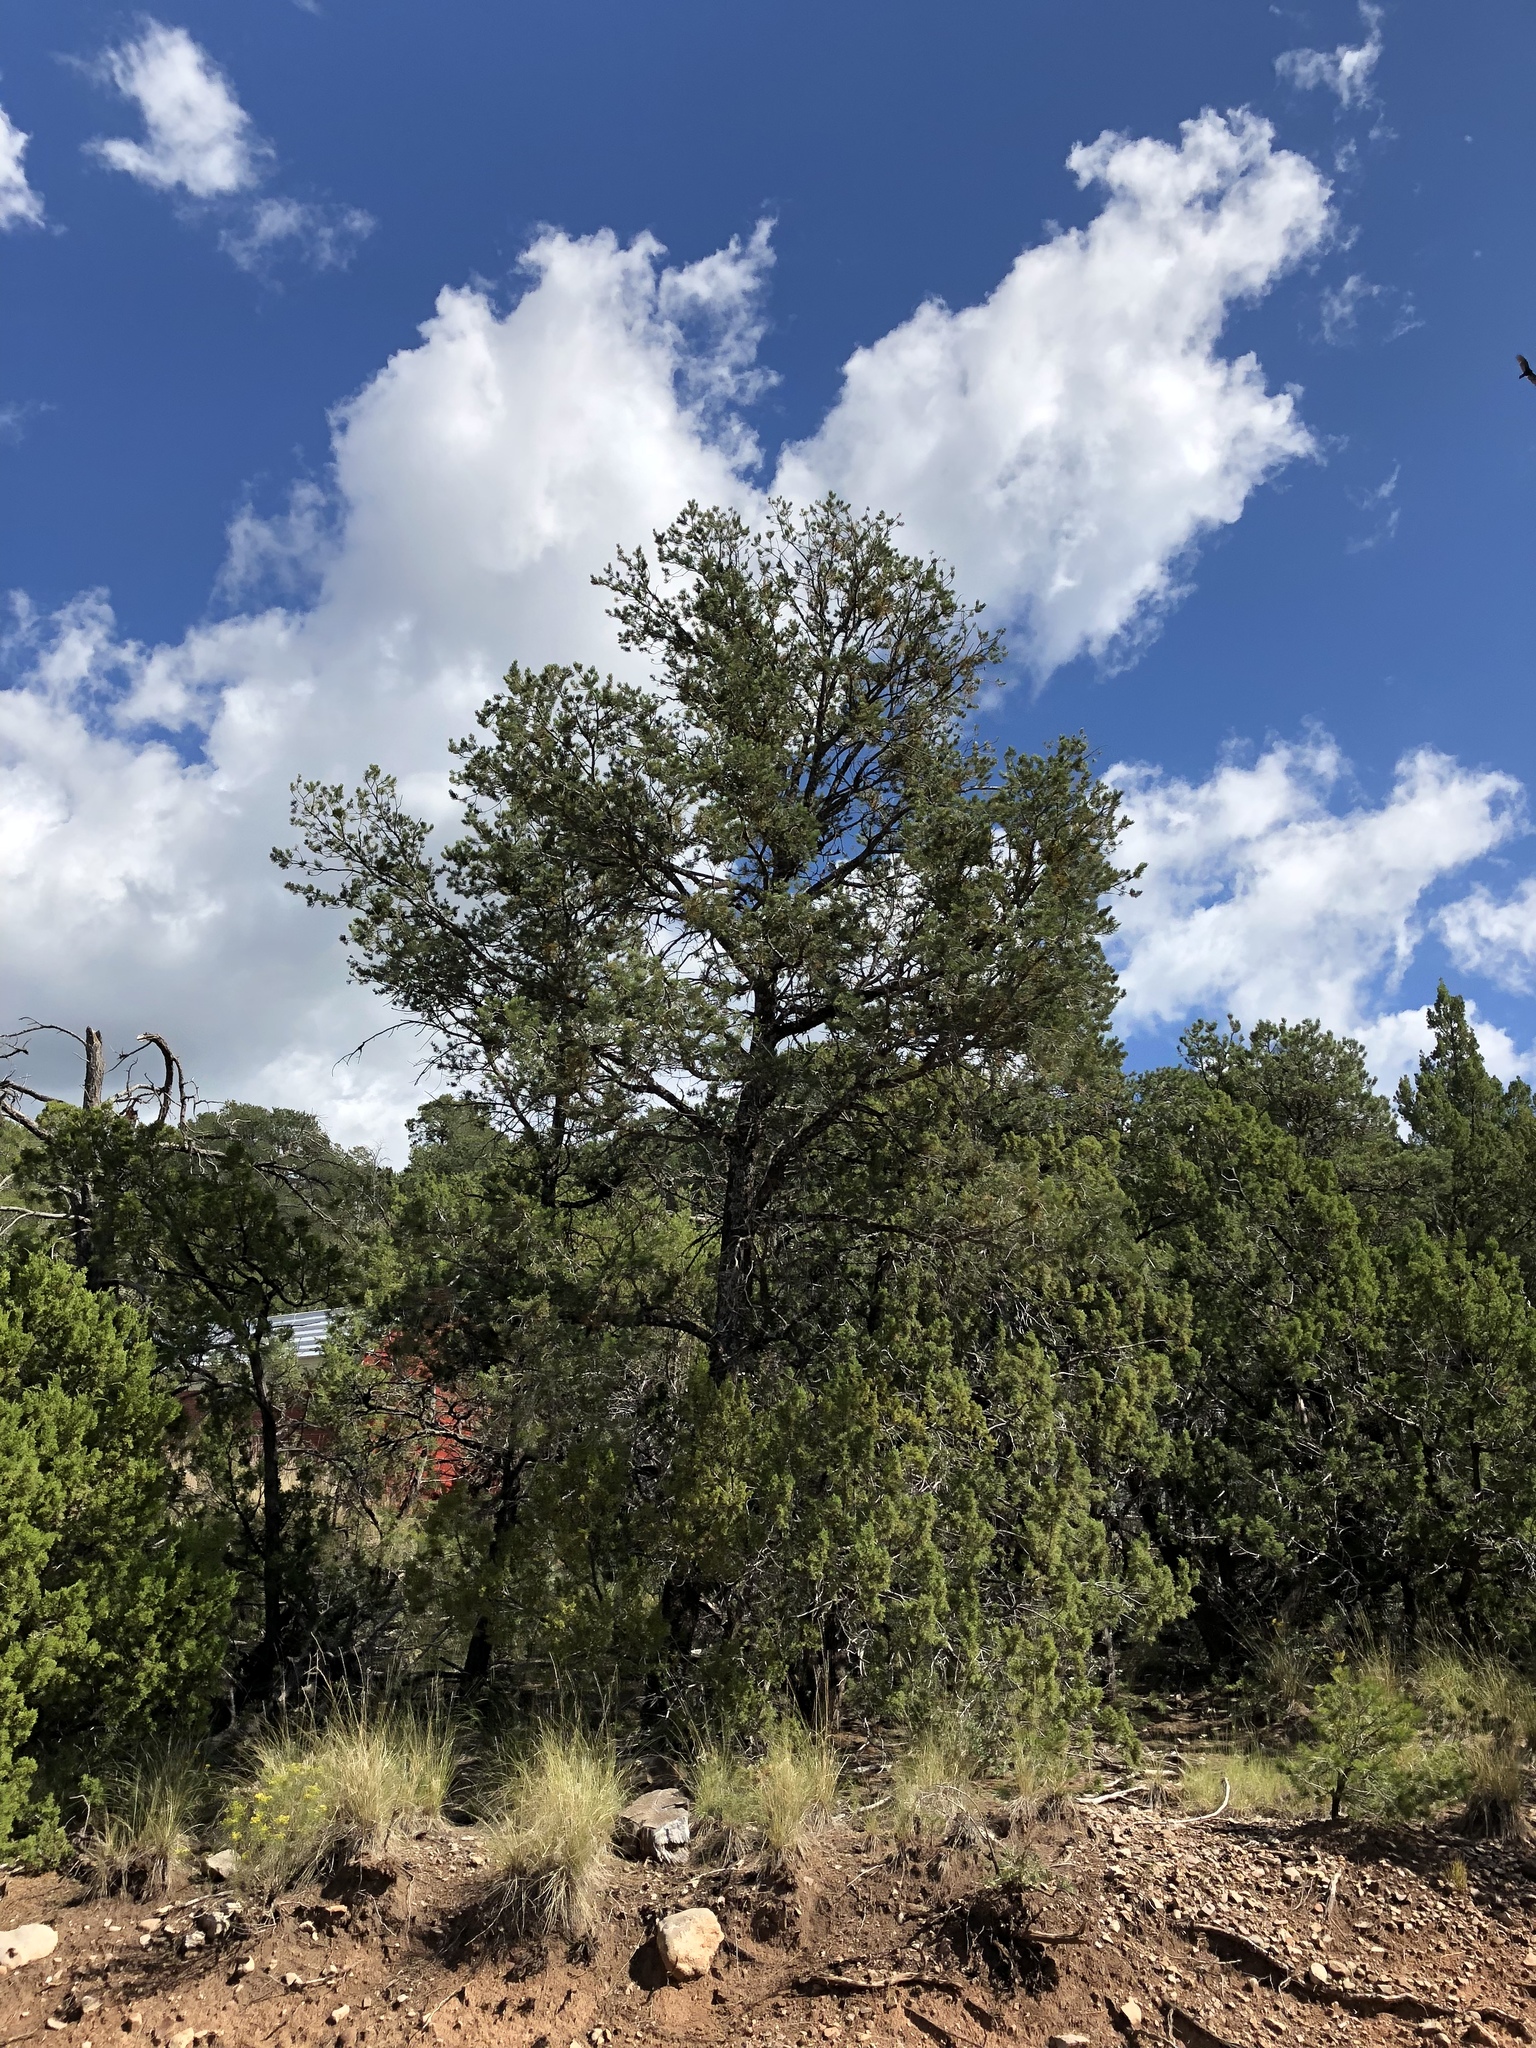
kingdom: Plantae
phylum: Tracheophyta
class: Pinopsida
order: Pinales
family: Pinaceae
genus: Pinus
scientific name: Pinus edulis
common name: Colorado pinyon
